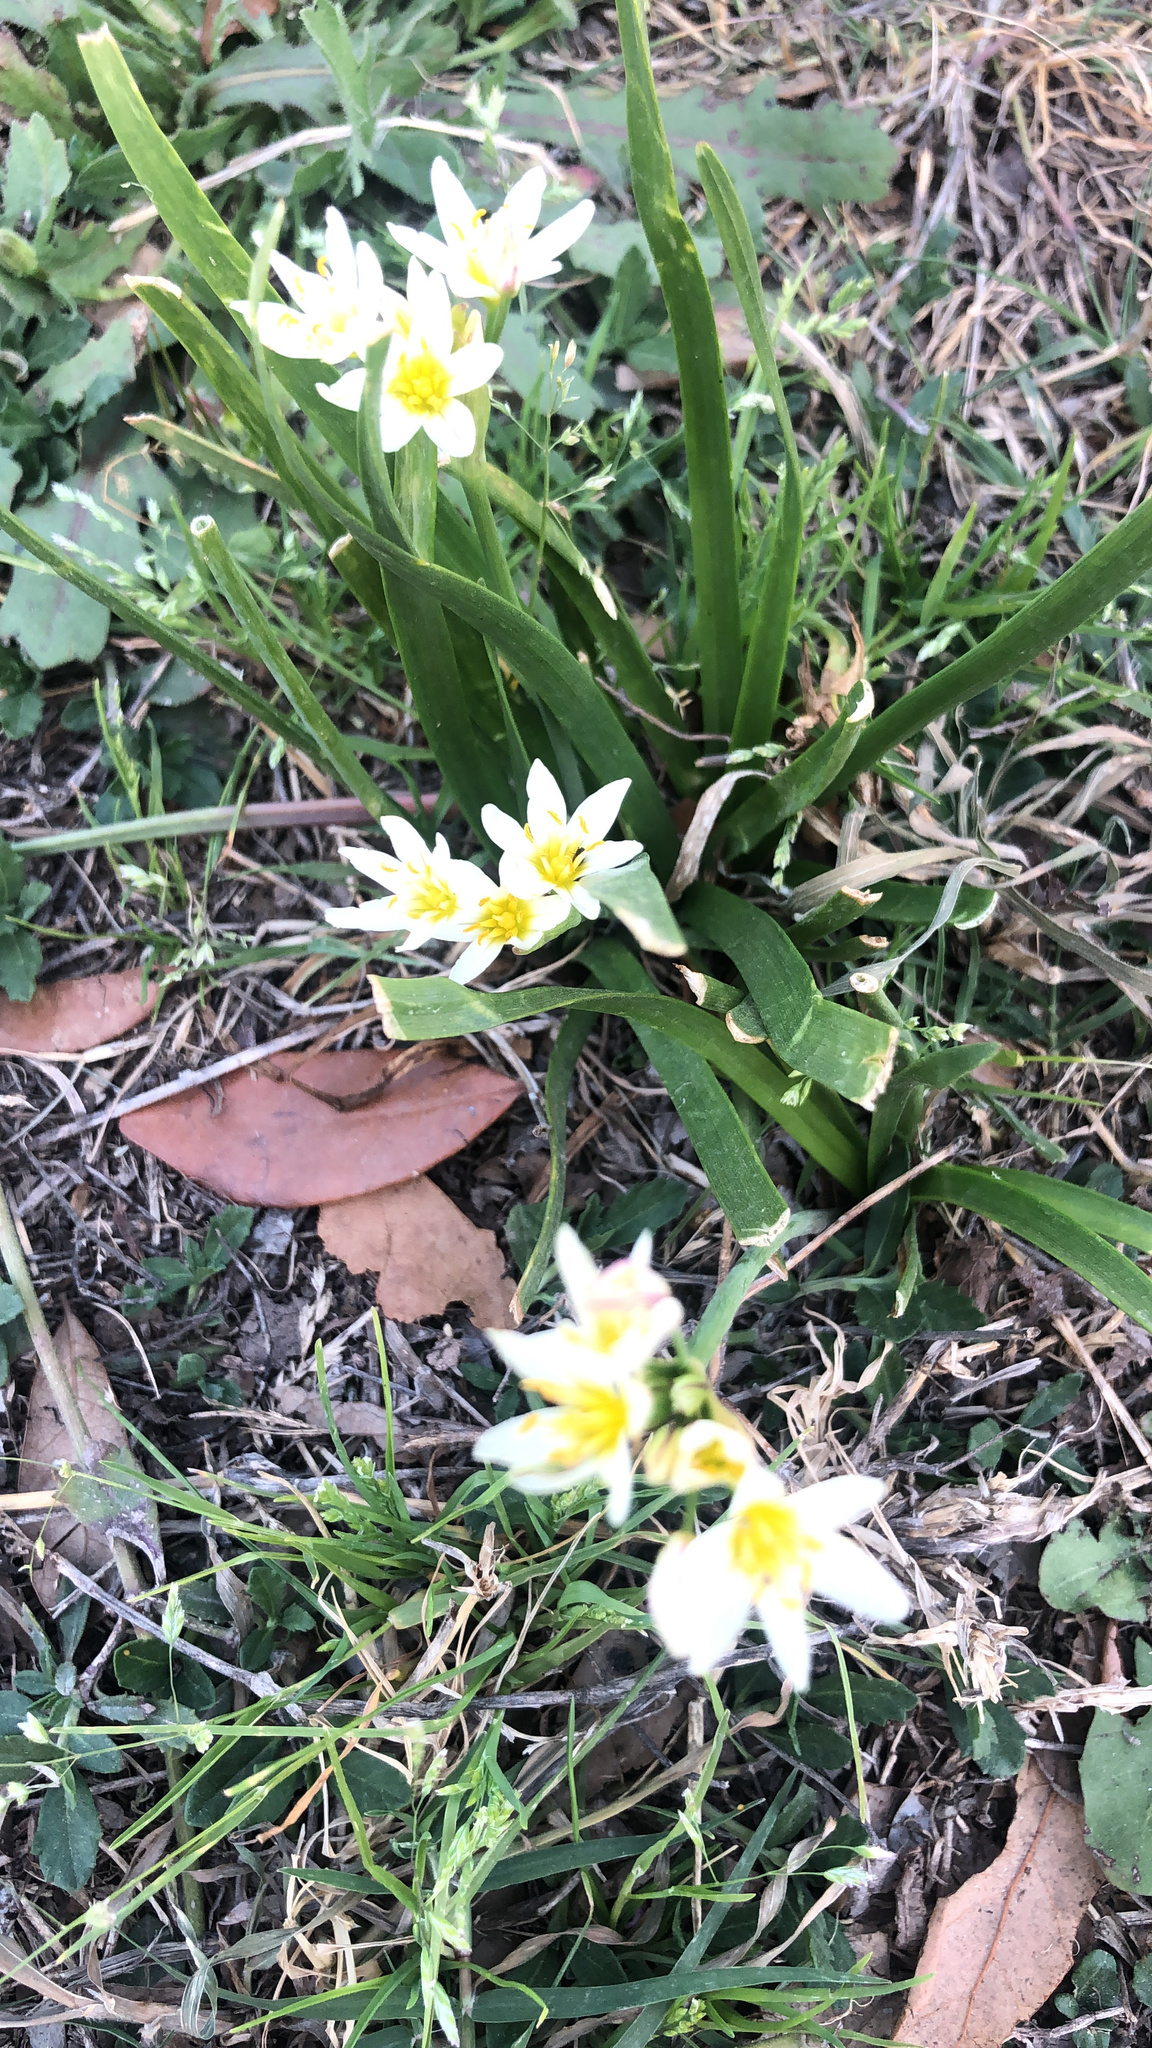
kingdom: Plantae
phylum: Tracheophyta
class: Liliopsida
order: Asparagales
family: Amaryllidaceae
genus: Nothoscordum
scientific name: Nothoscordum bivalve
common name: Crow-poison
